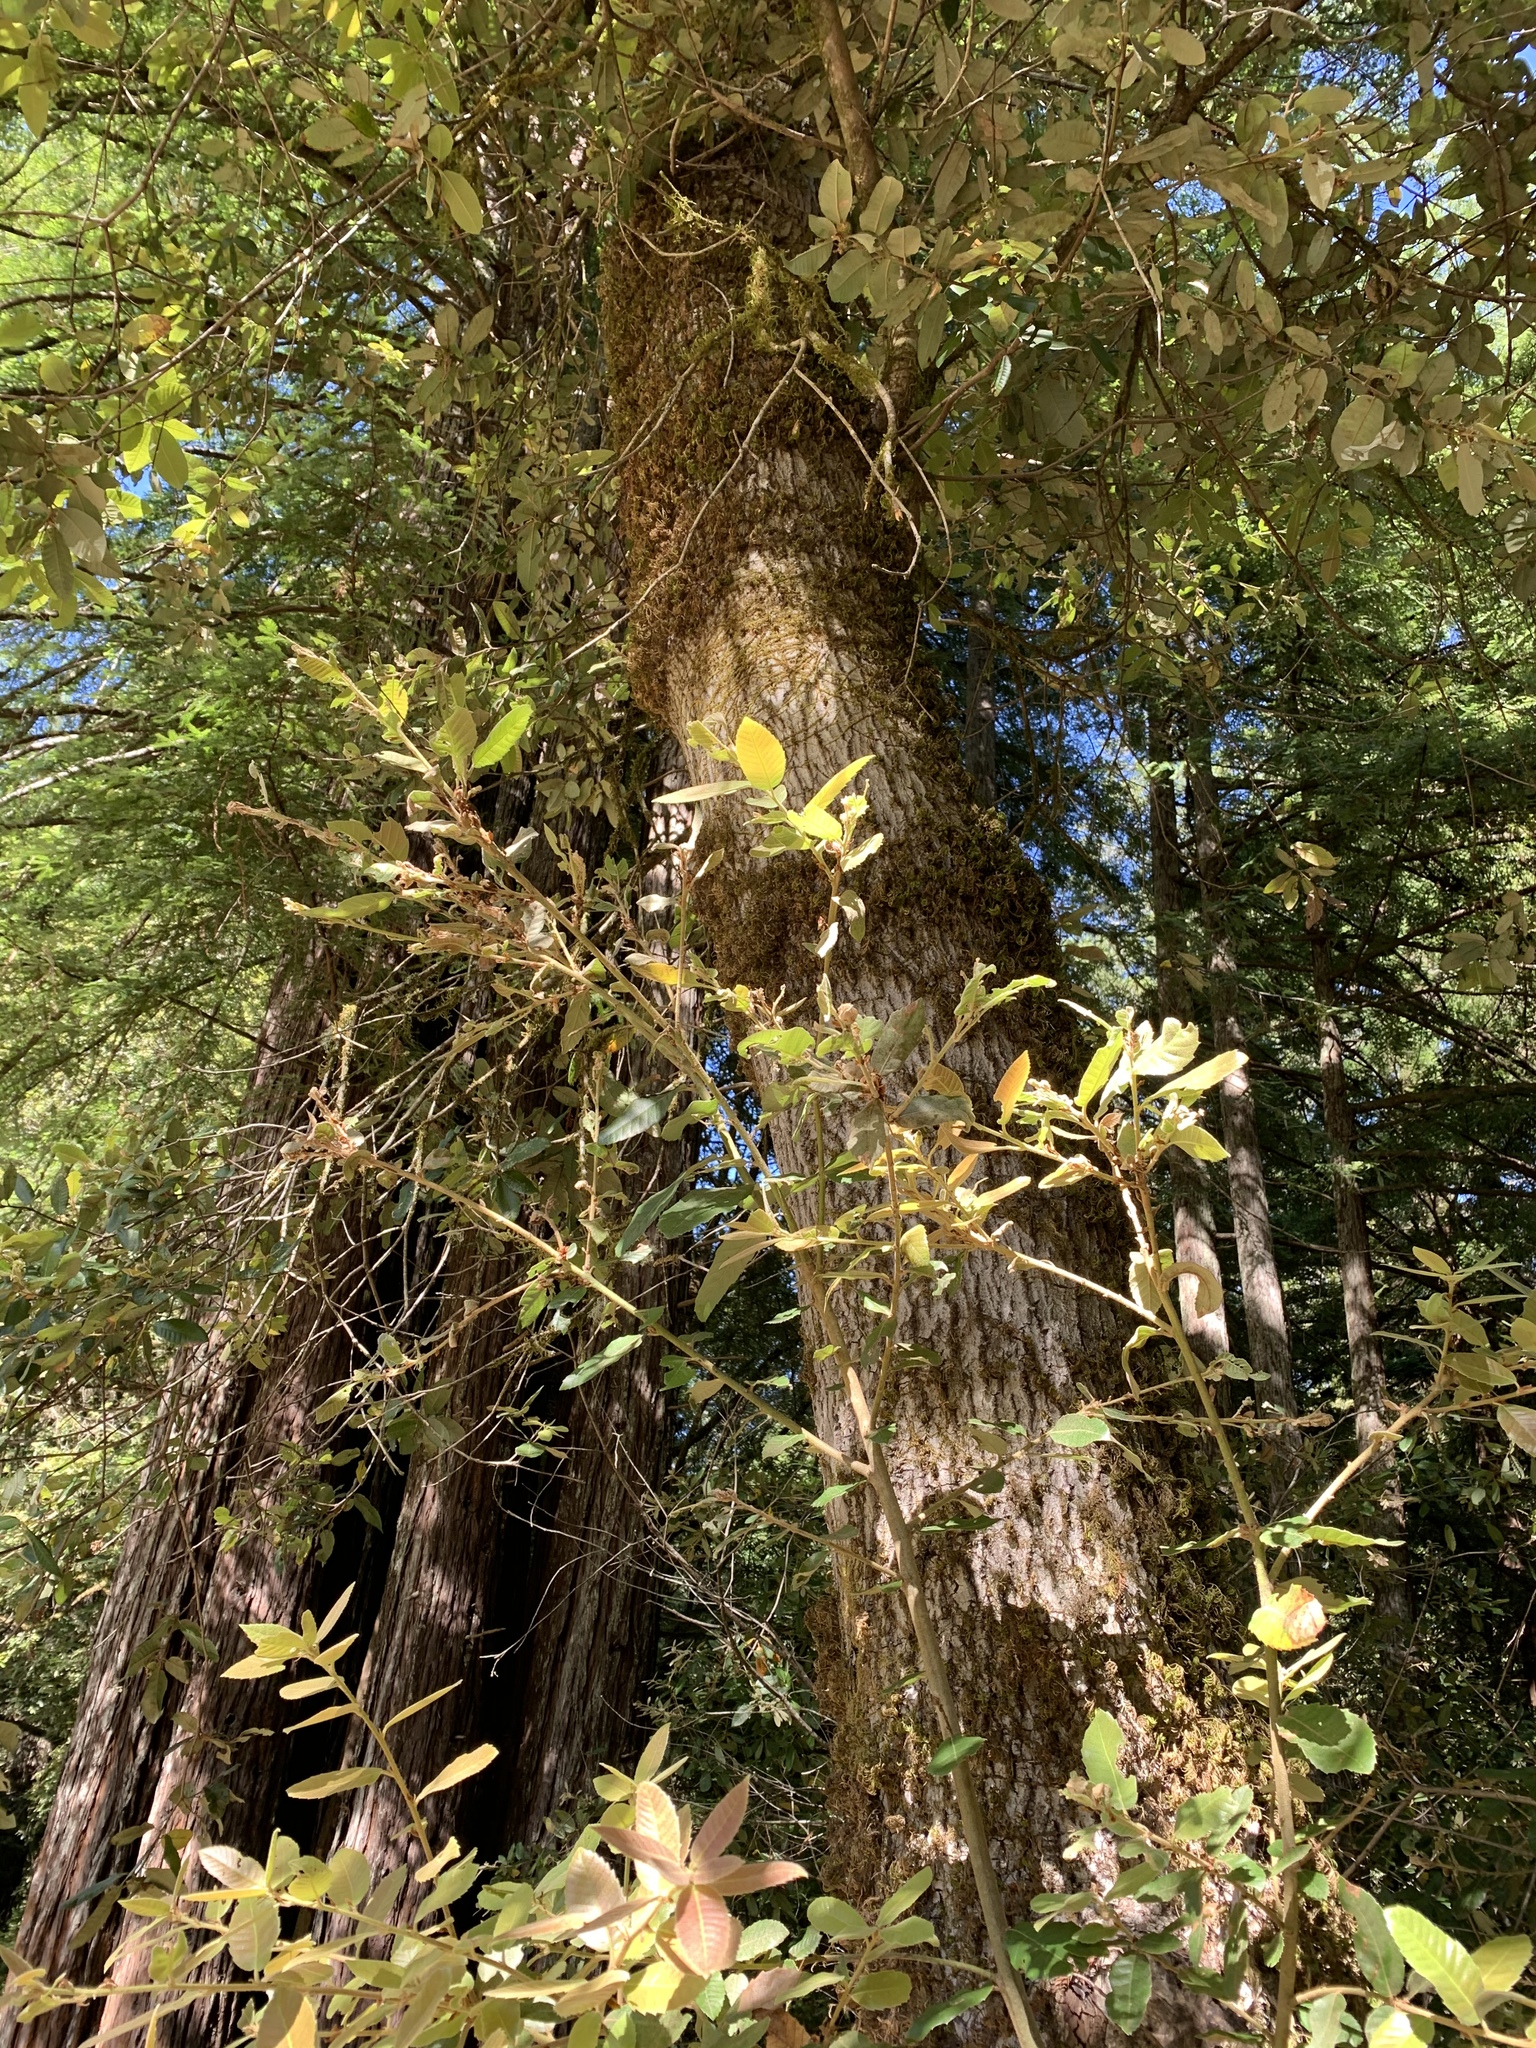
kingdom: Plantae
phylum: Tracheophyta
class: Magnoliopsida
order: Fagales
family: Fagaceae
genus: Notholithocarpus
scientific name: Notholithocarpus densiflorus
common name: Tan bark oak
